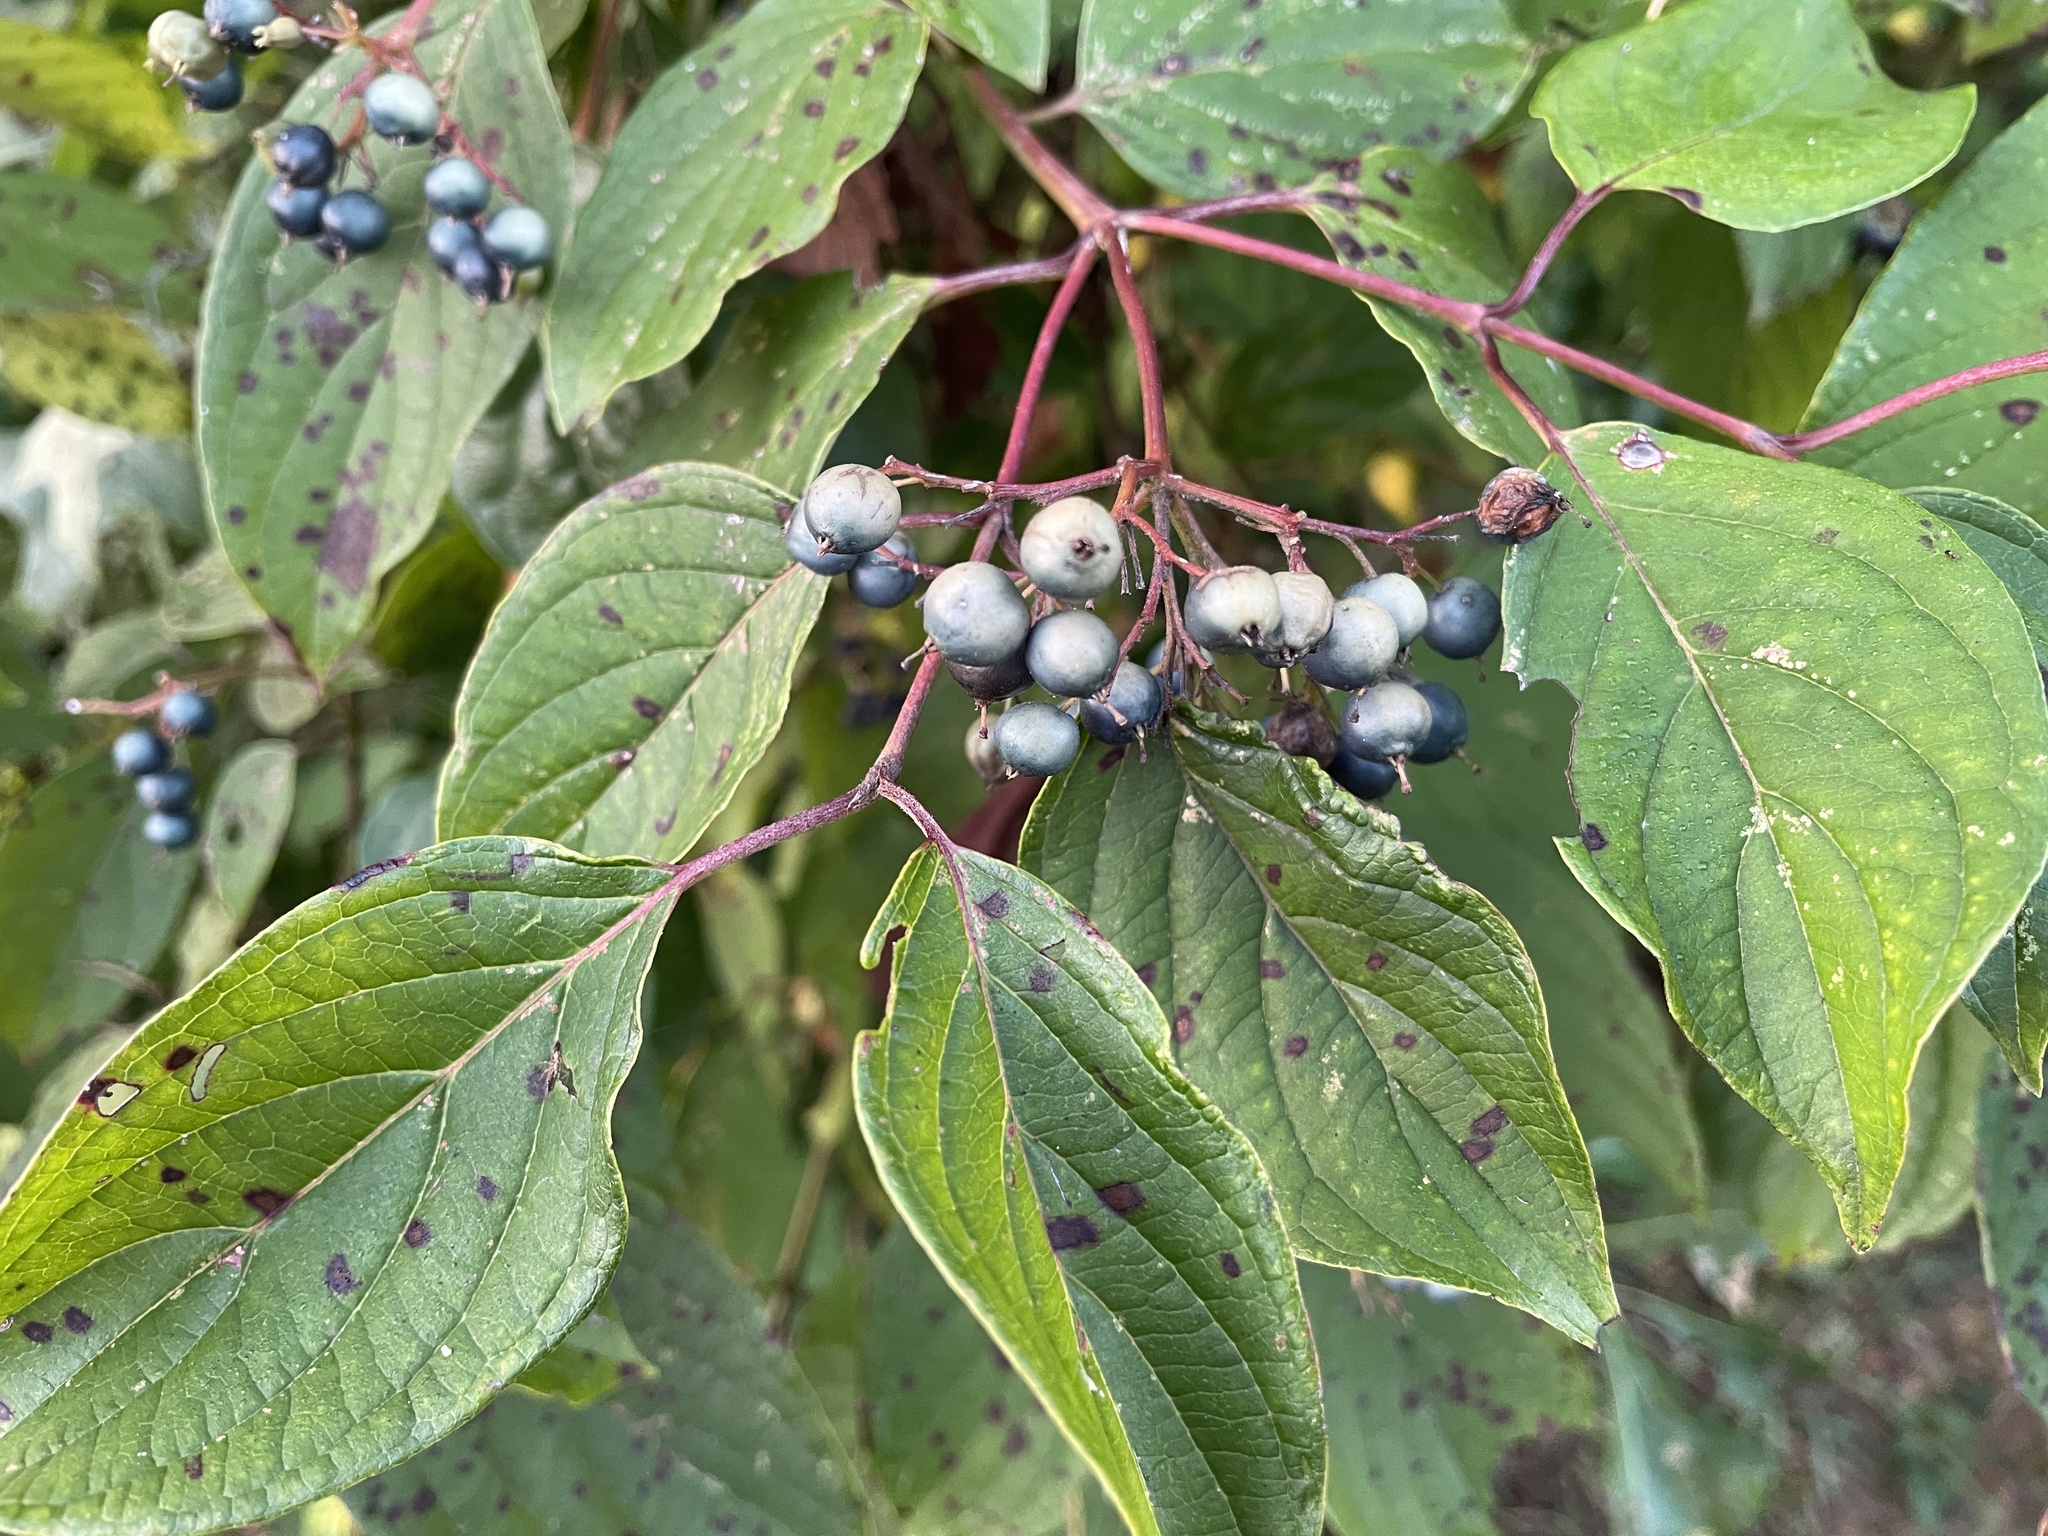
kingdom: Plantae
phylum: Tracheophyta
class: Magnoliopsida
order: Cornales
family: Cornaceae
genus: Cornus
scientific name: Cornus amomum
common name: Silky dogwood
